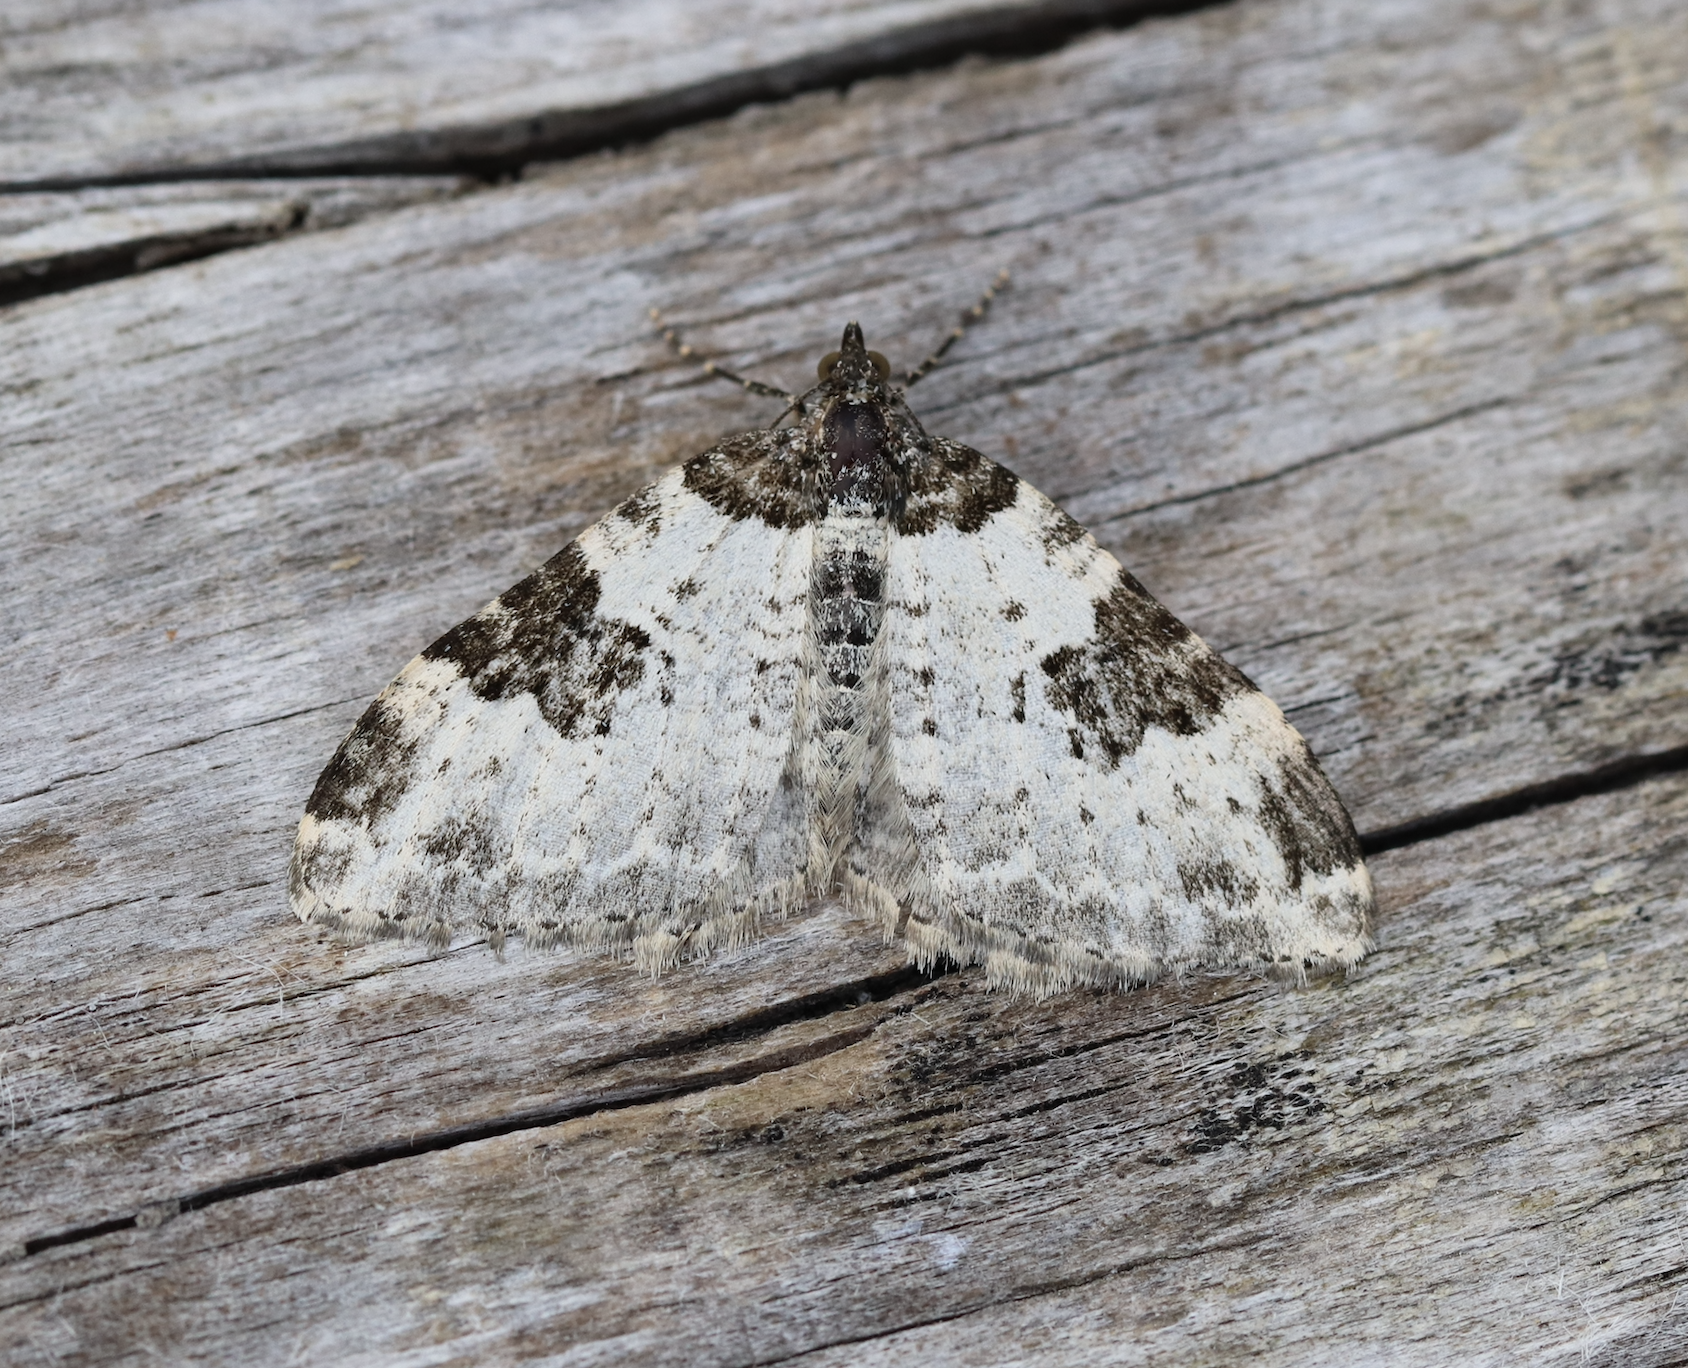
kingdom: Animalia
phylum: Arthropoda
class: Insecta
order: Lepidoptera
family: Geometridae
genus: Xanthorhoe
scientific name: Xanthorhoe fluctuata
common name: Garden carpet
